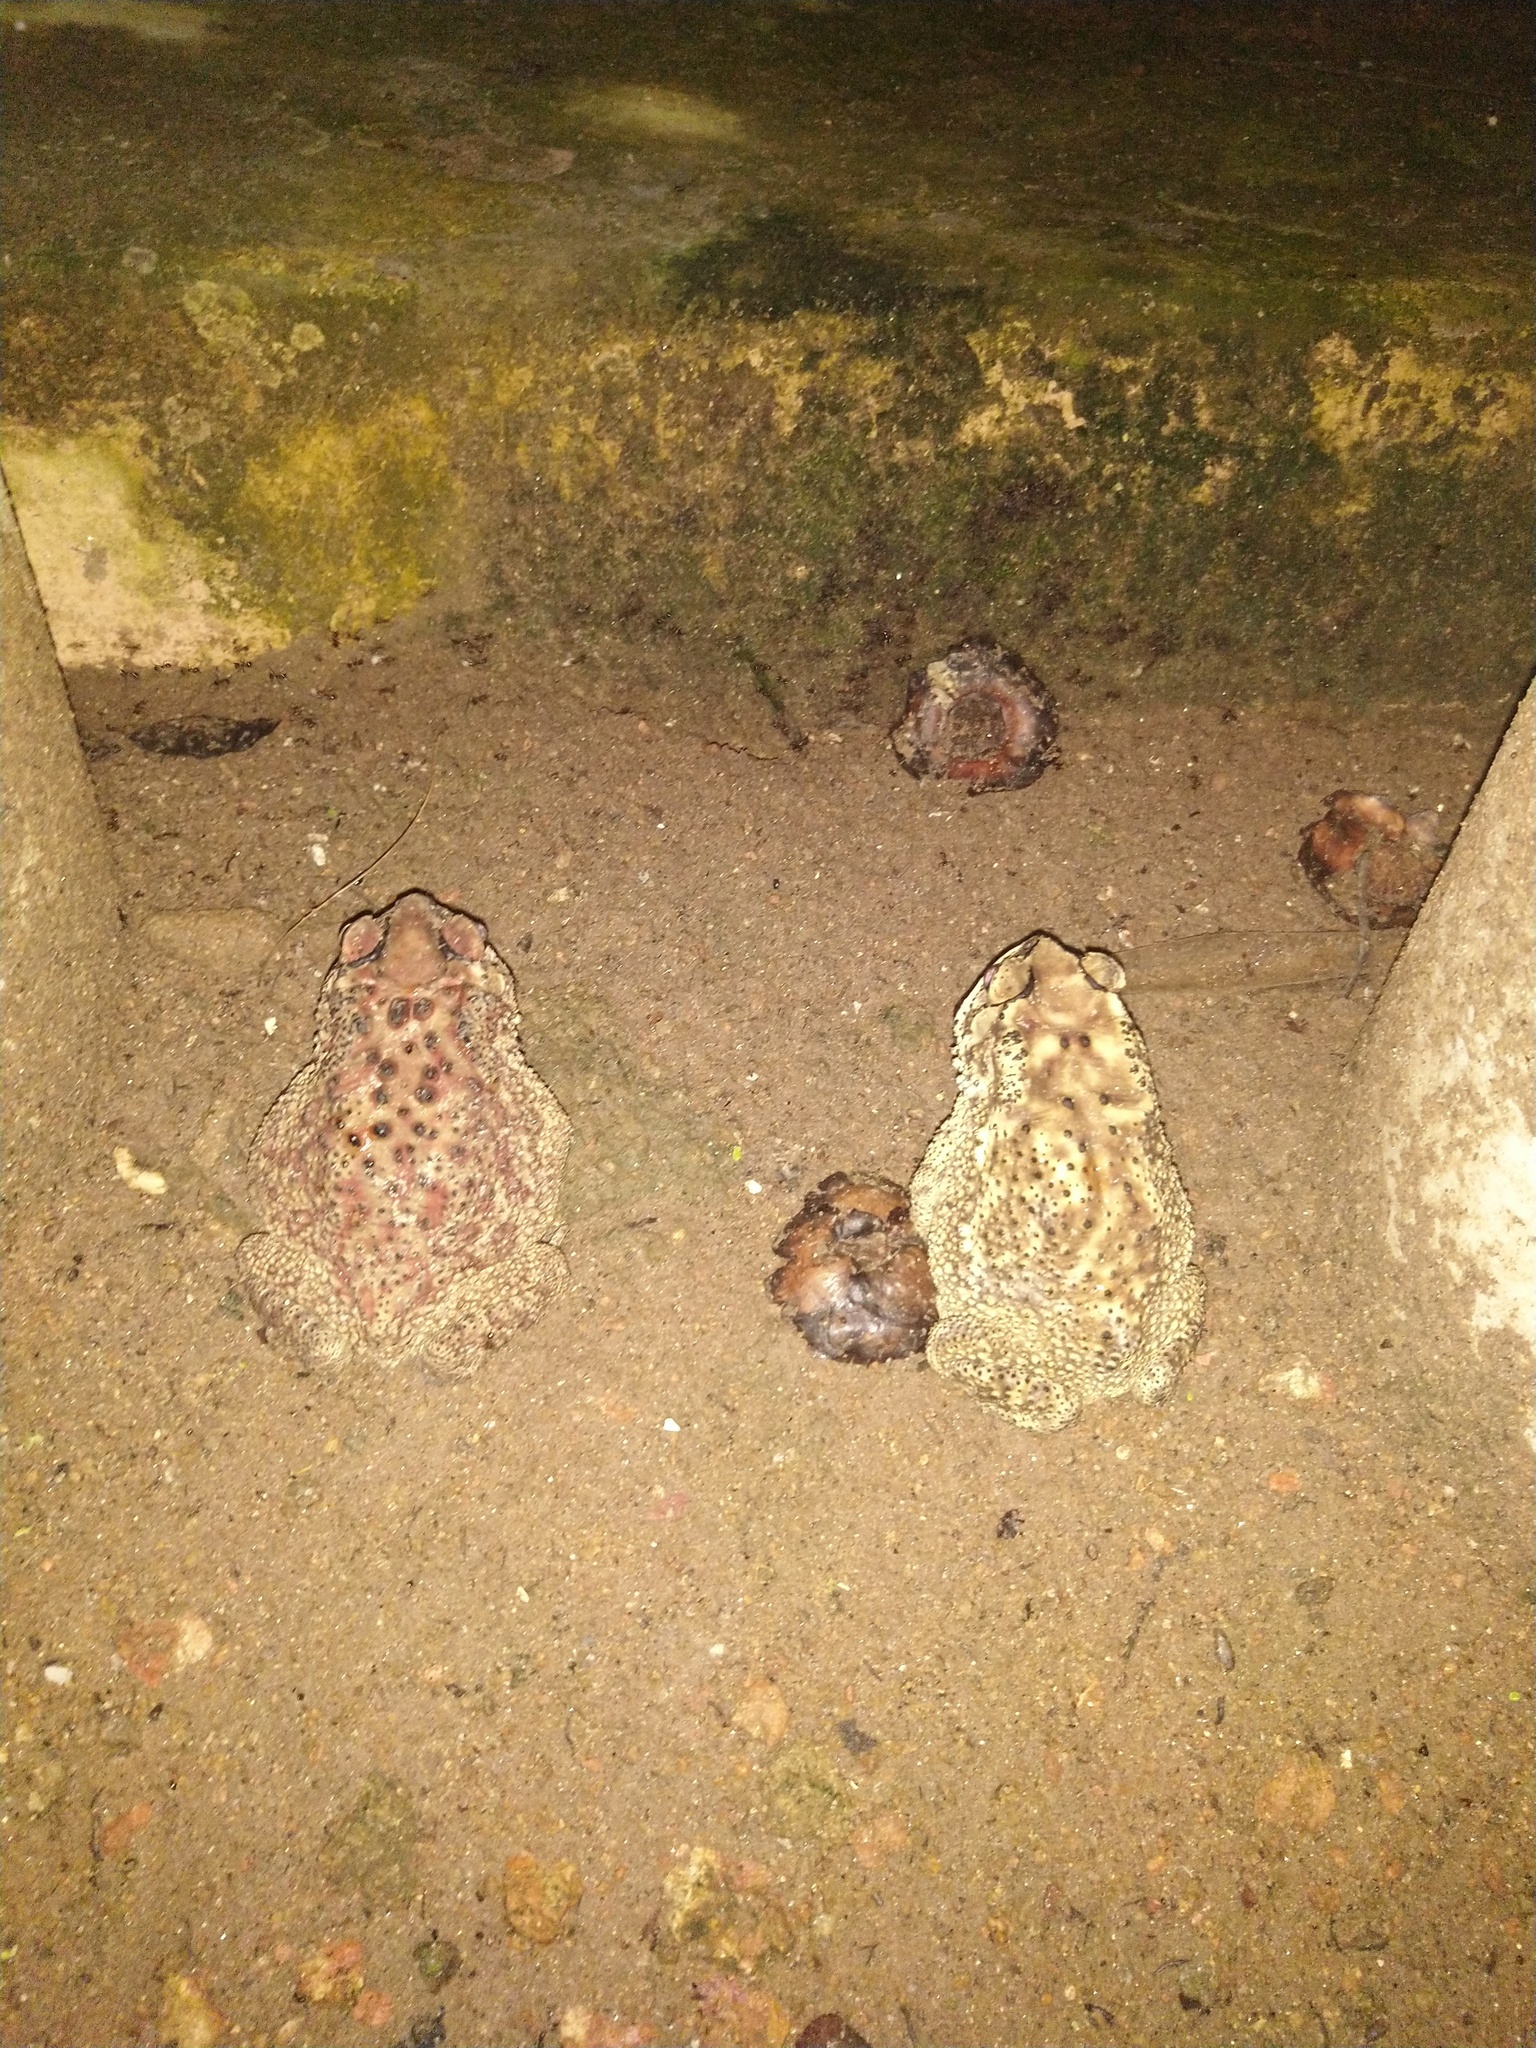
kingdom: Animalia
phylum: Chordata
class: Amphibia
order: Anura
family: Bufonidae
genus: Duttaphrynus
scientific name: Duttaphrynus melanostictus
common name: Common sunda toad
